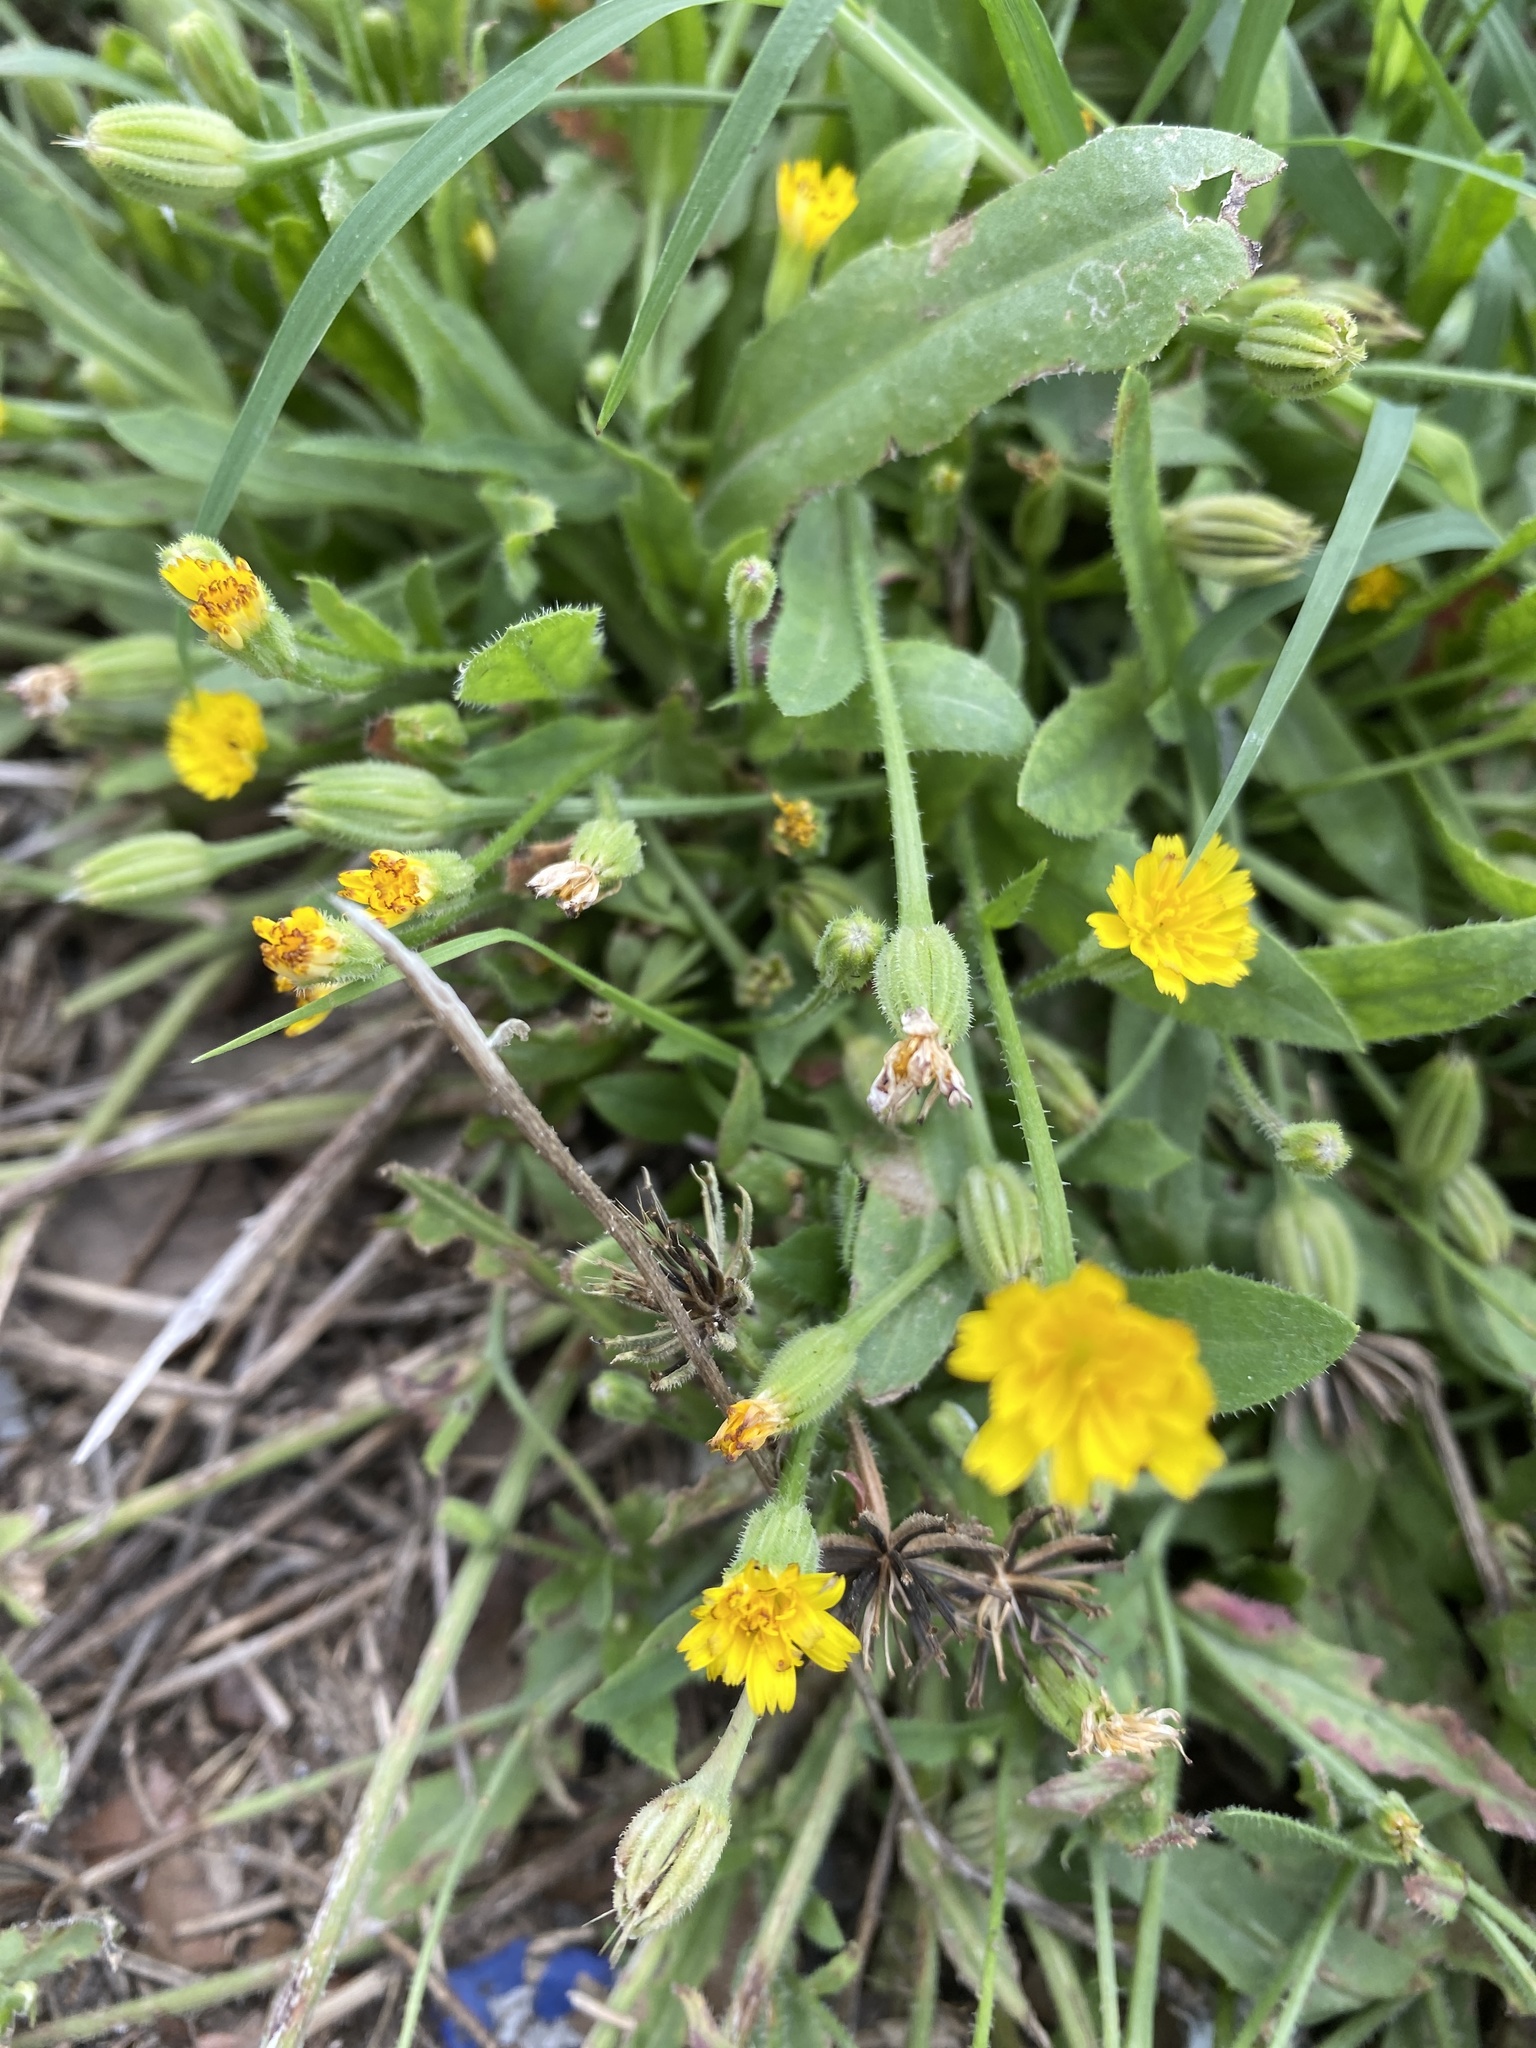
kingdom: Plantae
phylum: Tracheophyta
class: Magnoliopsida
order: Asterales
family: Asteraceae
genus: Hedypnois
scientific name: Hedypnois rhagadioloides
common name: Cretan weed
